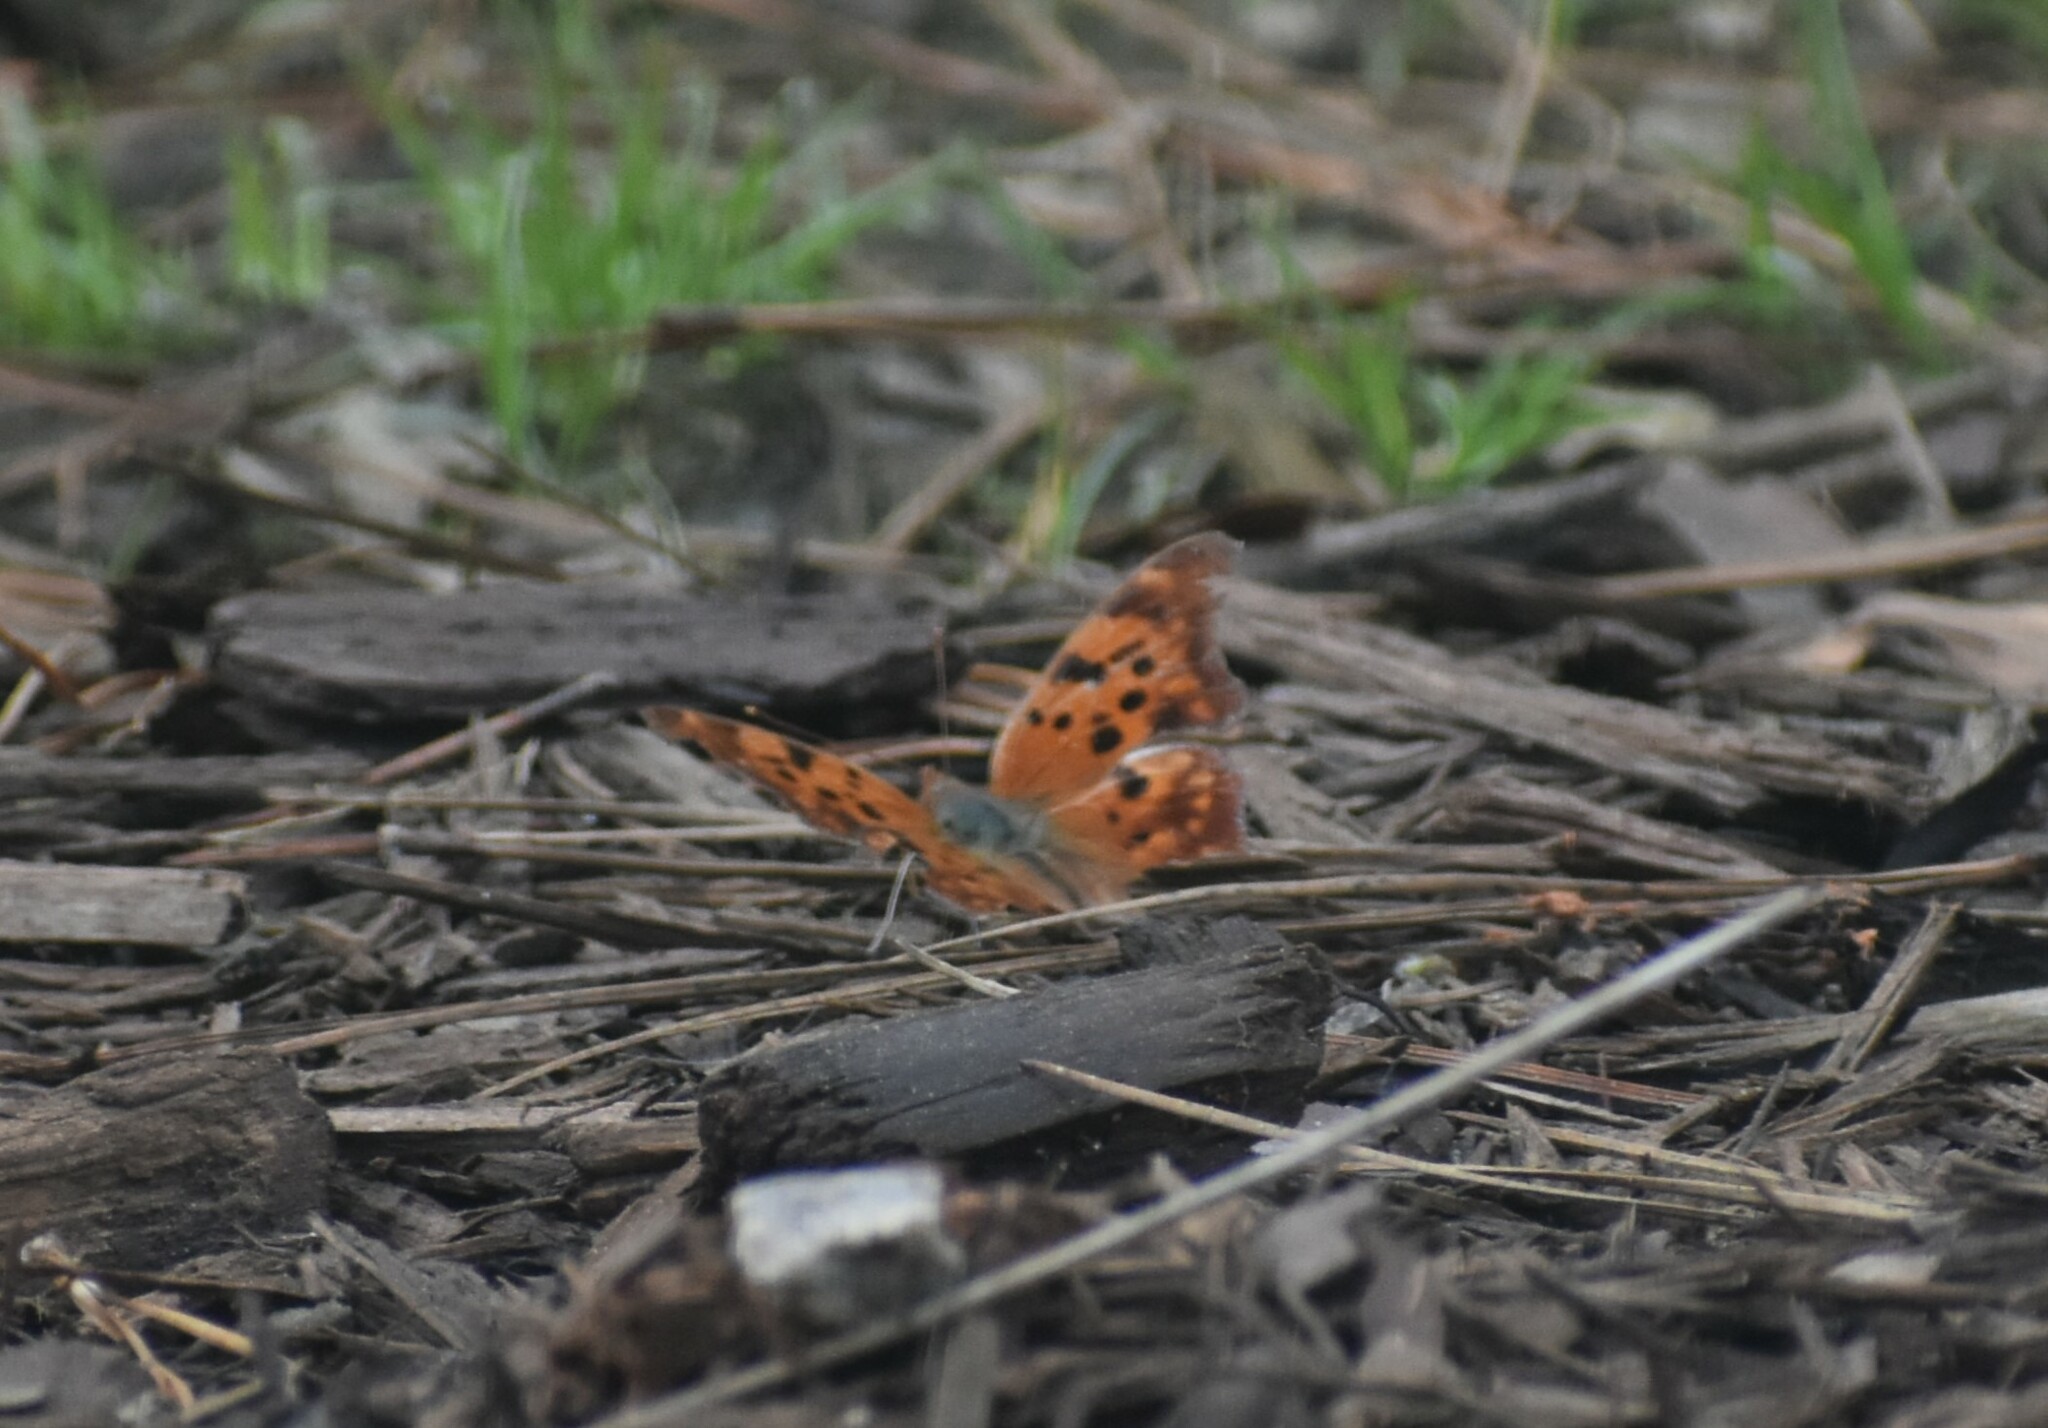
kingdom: Animalia
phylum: Arthropoda
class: Insecta
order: Lepidoptera
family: Nymphalidae
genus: Polygonia
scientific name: Polygonia comma
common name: Eastern comma
